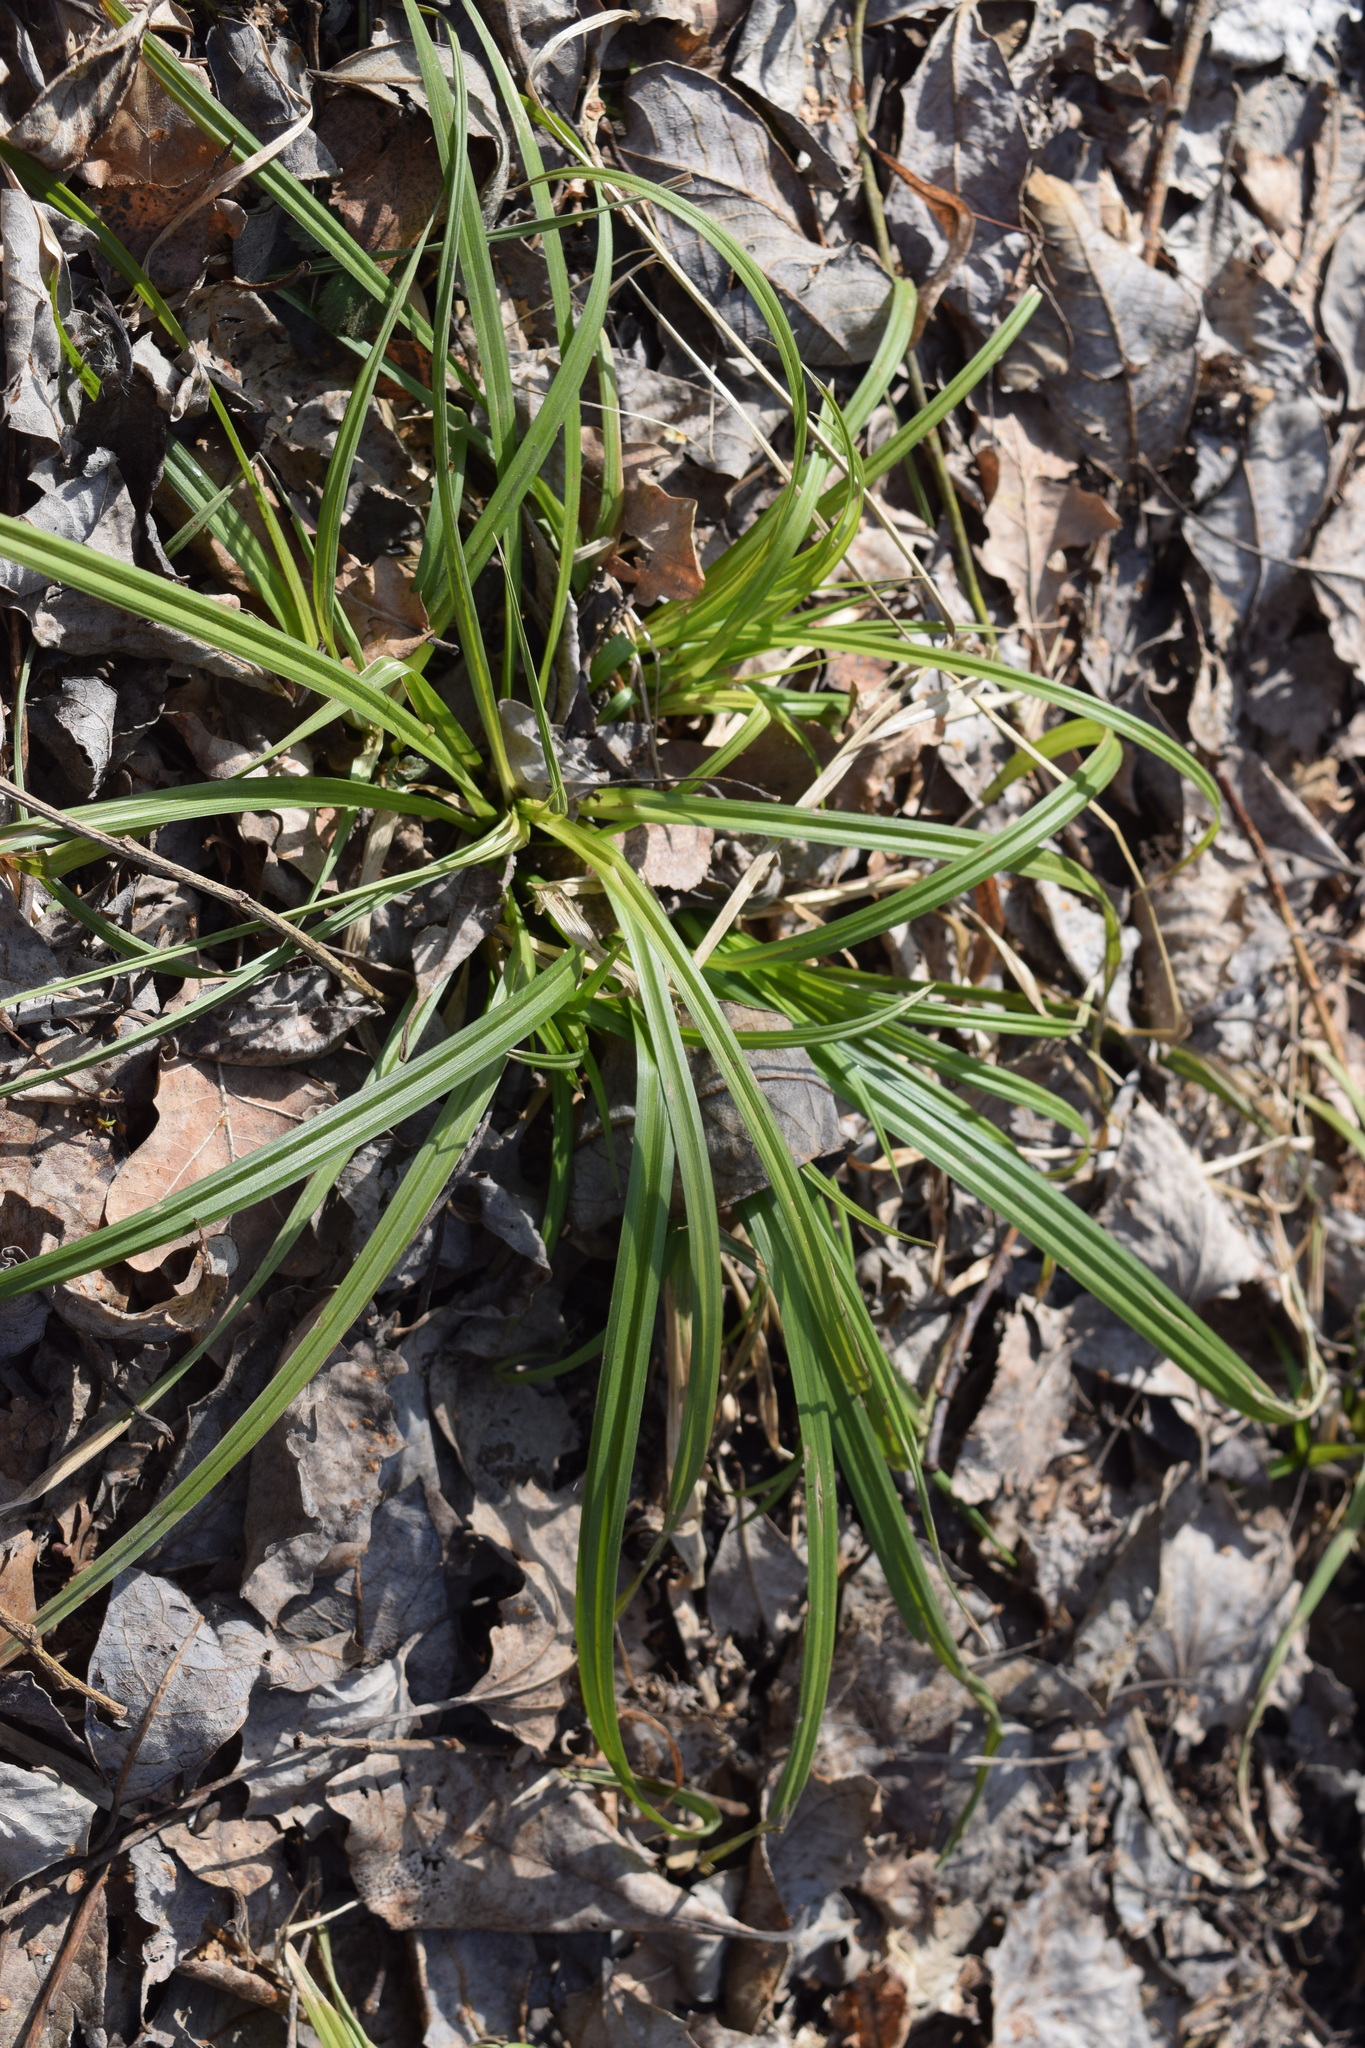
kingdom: Plantae
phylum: Tracheophyta
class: Liliopsida
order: Poales
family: Cyperaceae
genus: Carex
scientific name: Carex sylvatica
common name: Wood-sedge
